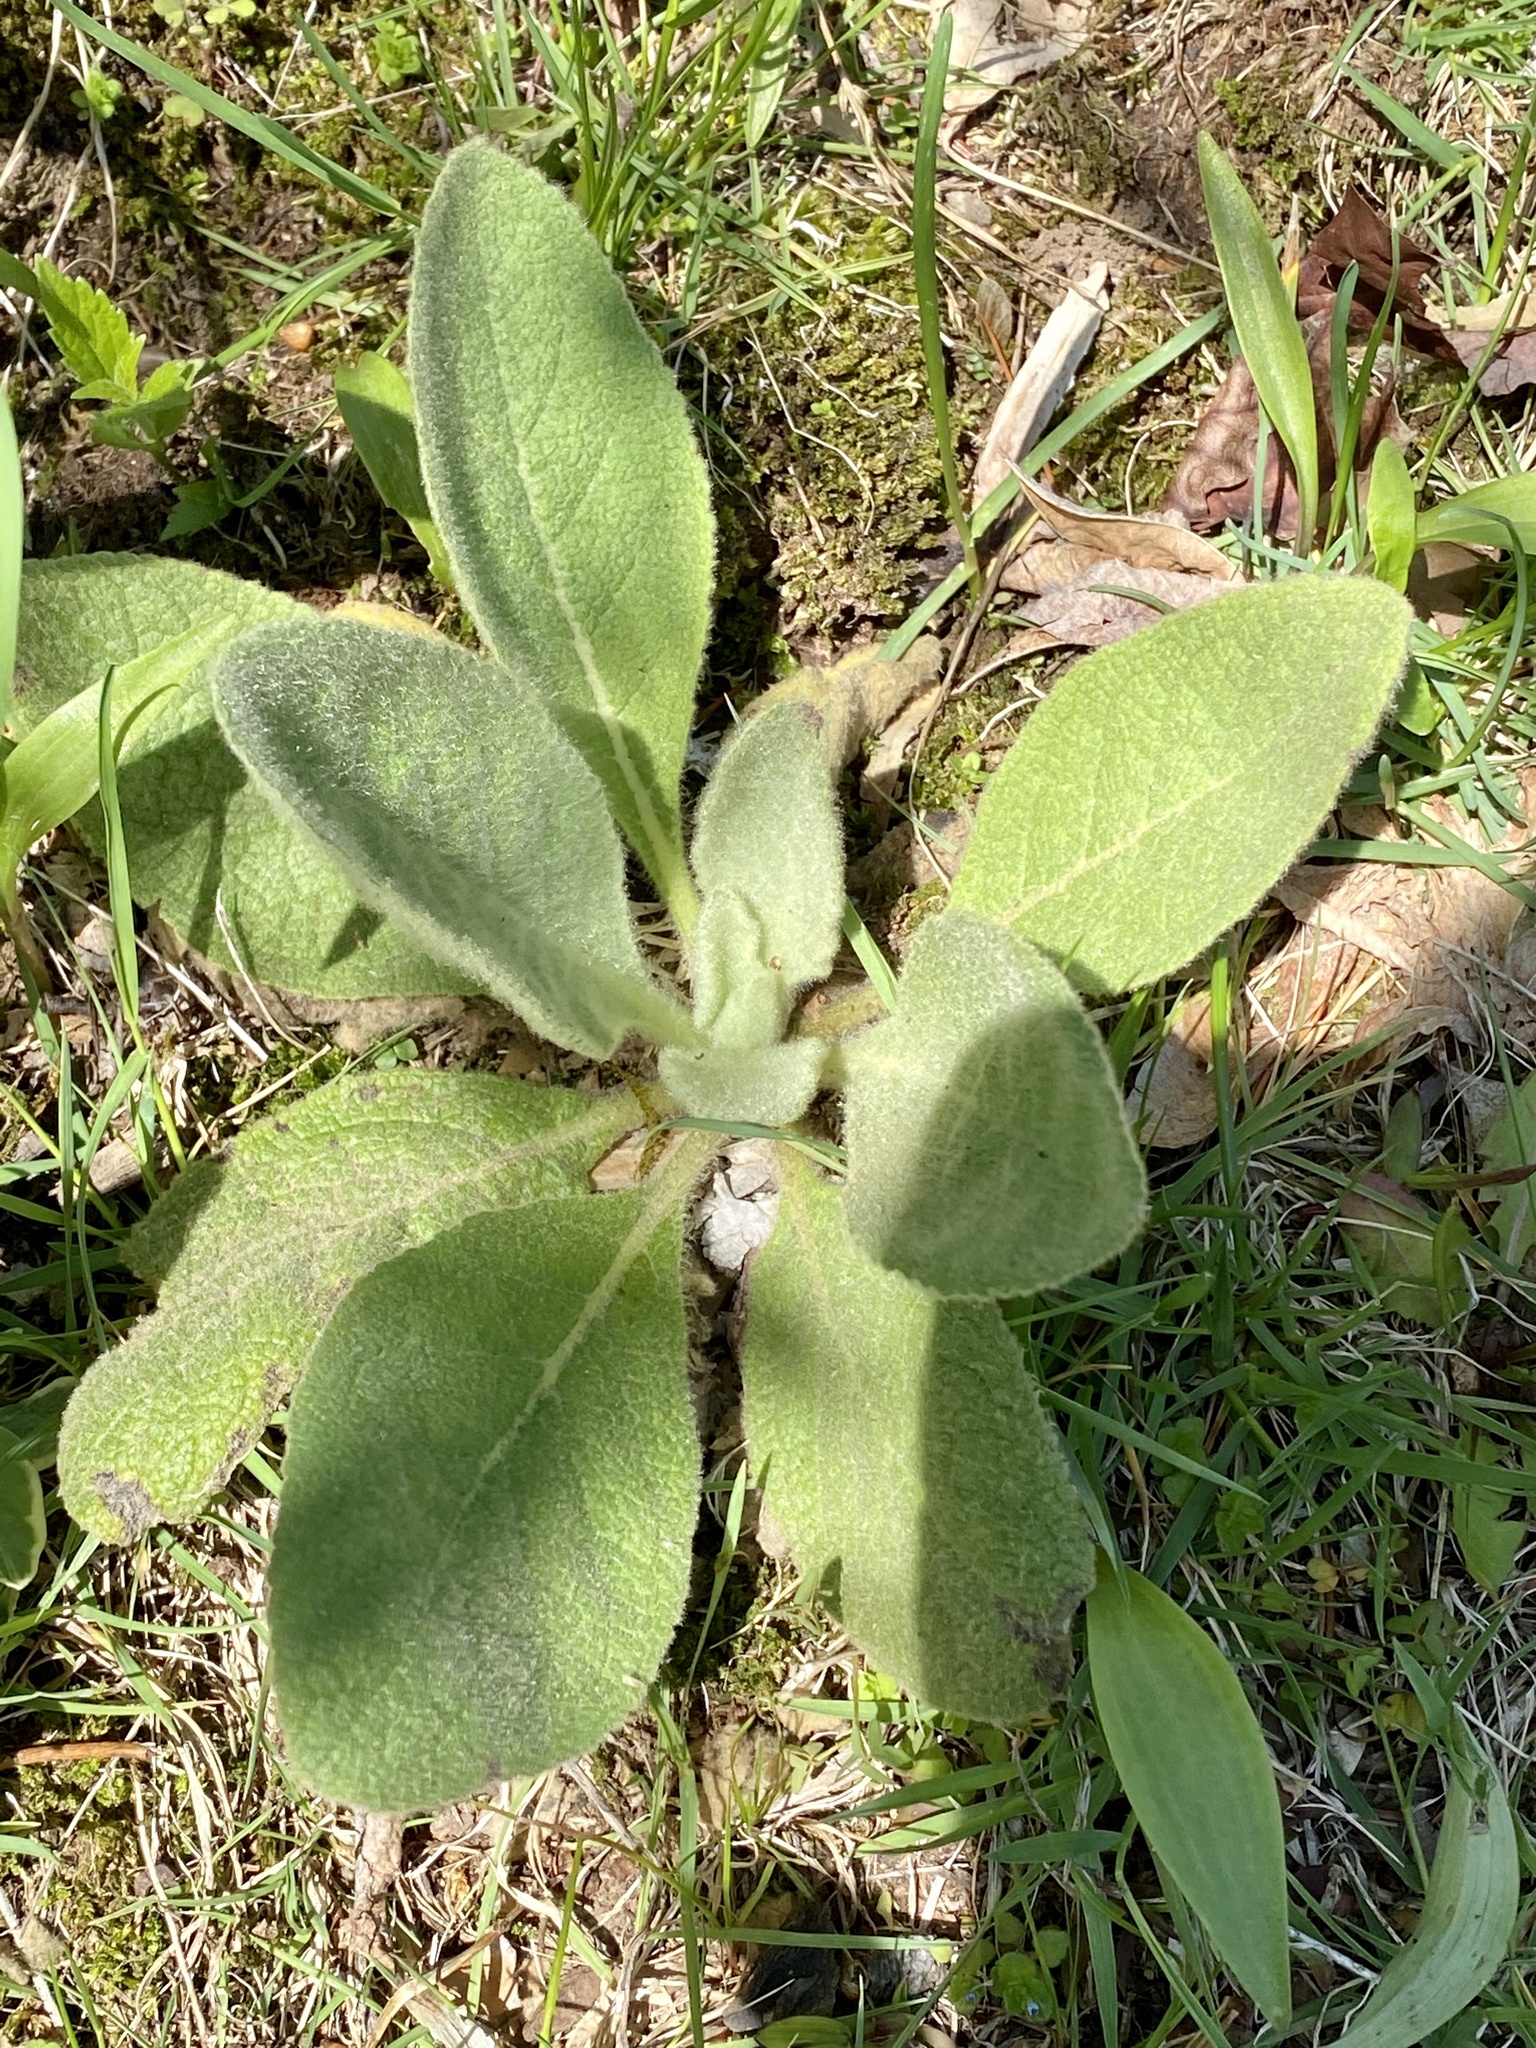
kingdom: Plantae
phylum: Tracheophyta
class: Magnoliopsida
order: Lamiales
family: Scrophulariaceae
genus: Verbascum
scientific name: Verbascum thapsus
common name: Common mullein
